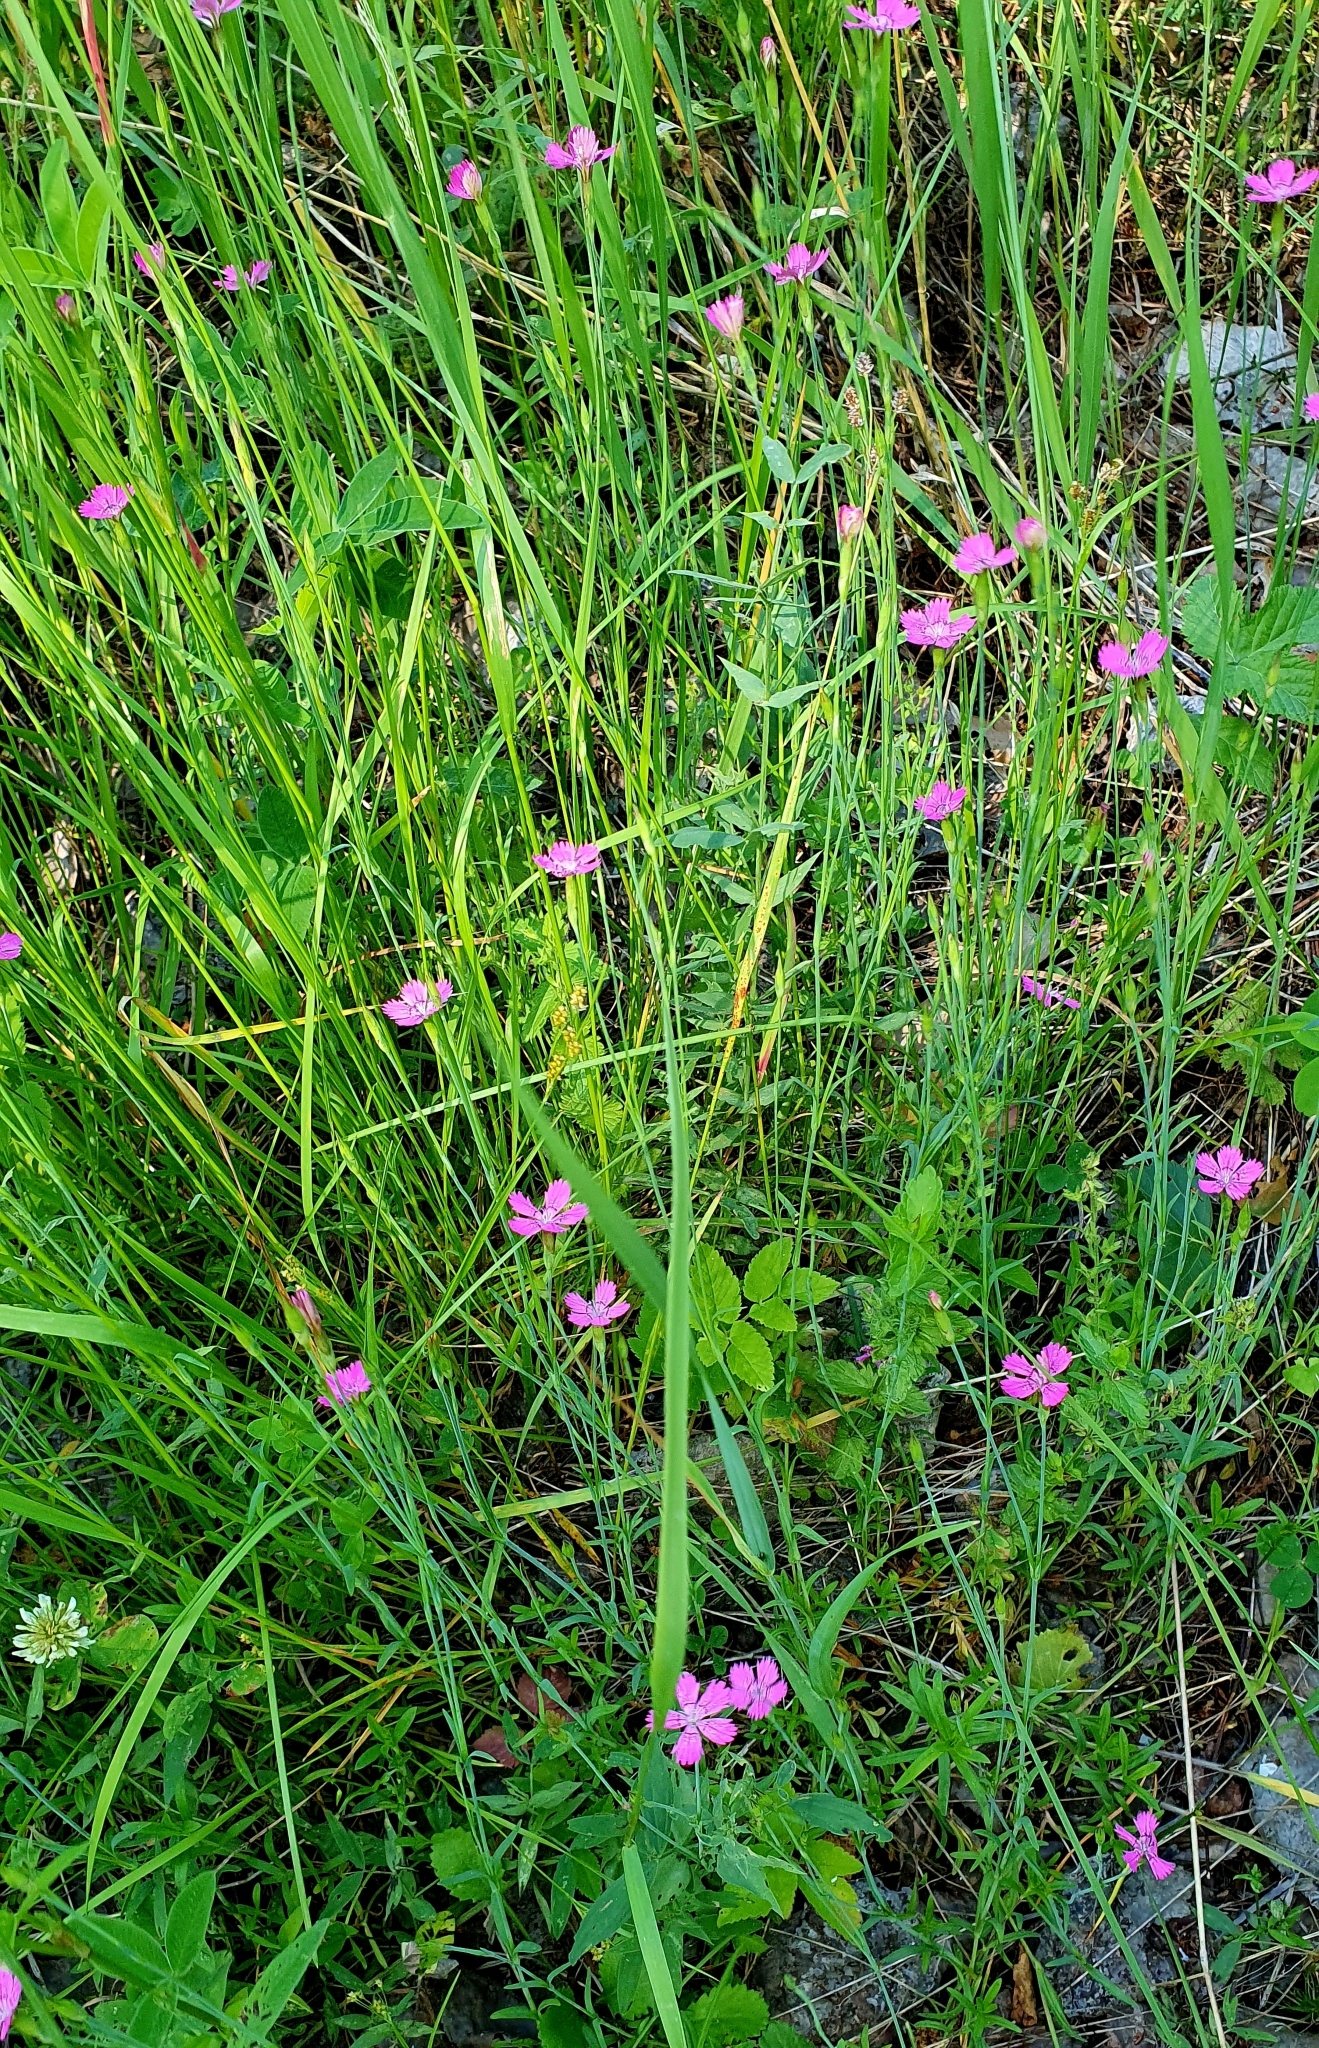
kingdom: Plantae
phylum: Tracheophyta
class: Magnoliopsida
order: Caryophyllales
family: Caryophyllaceae
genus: Dianthus
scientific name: Dianthus deltoides
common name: Maiden pink
